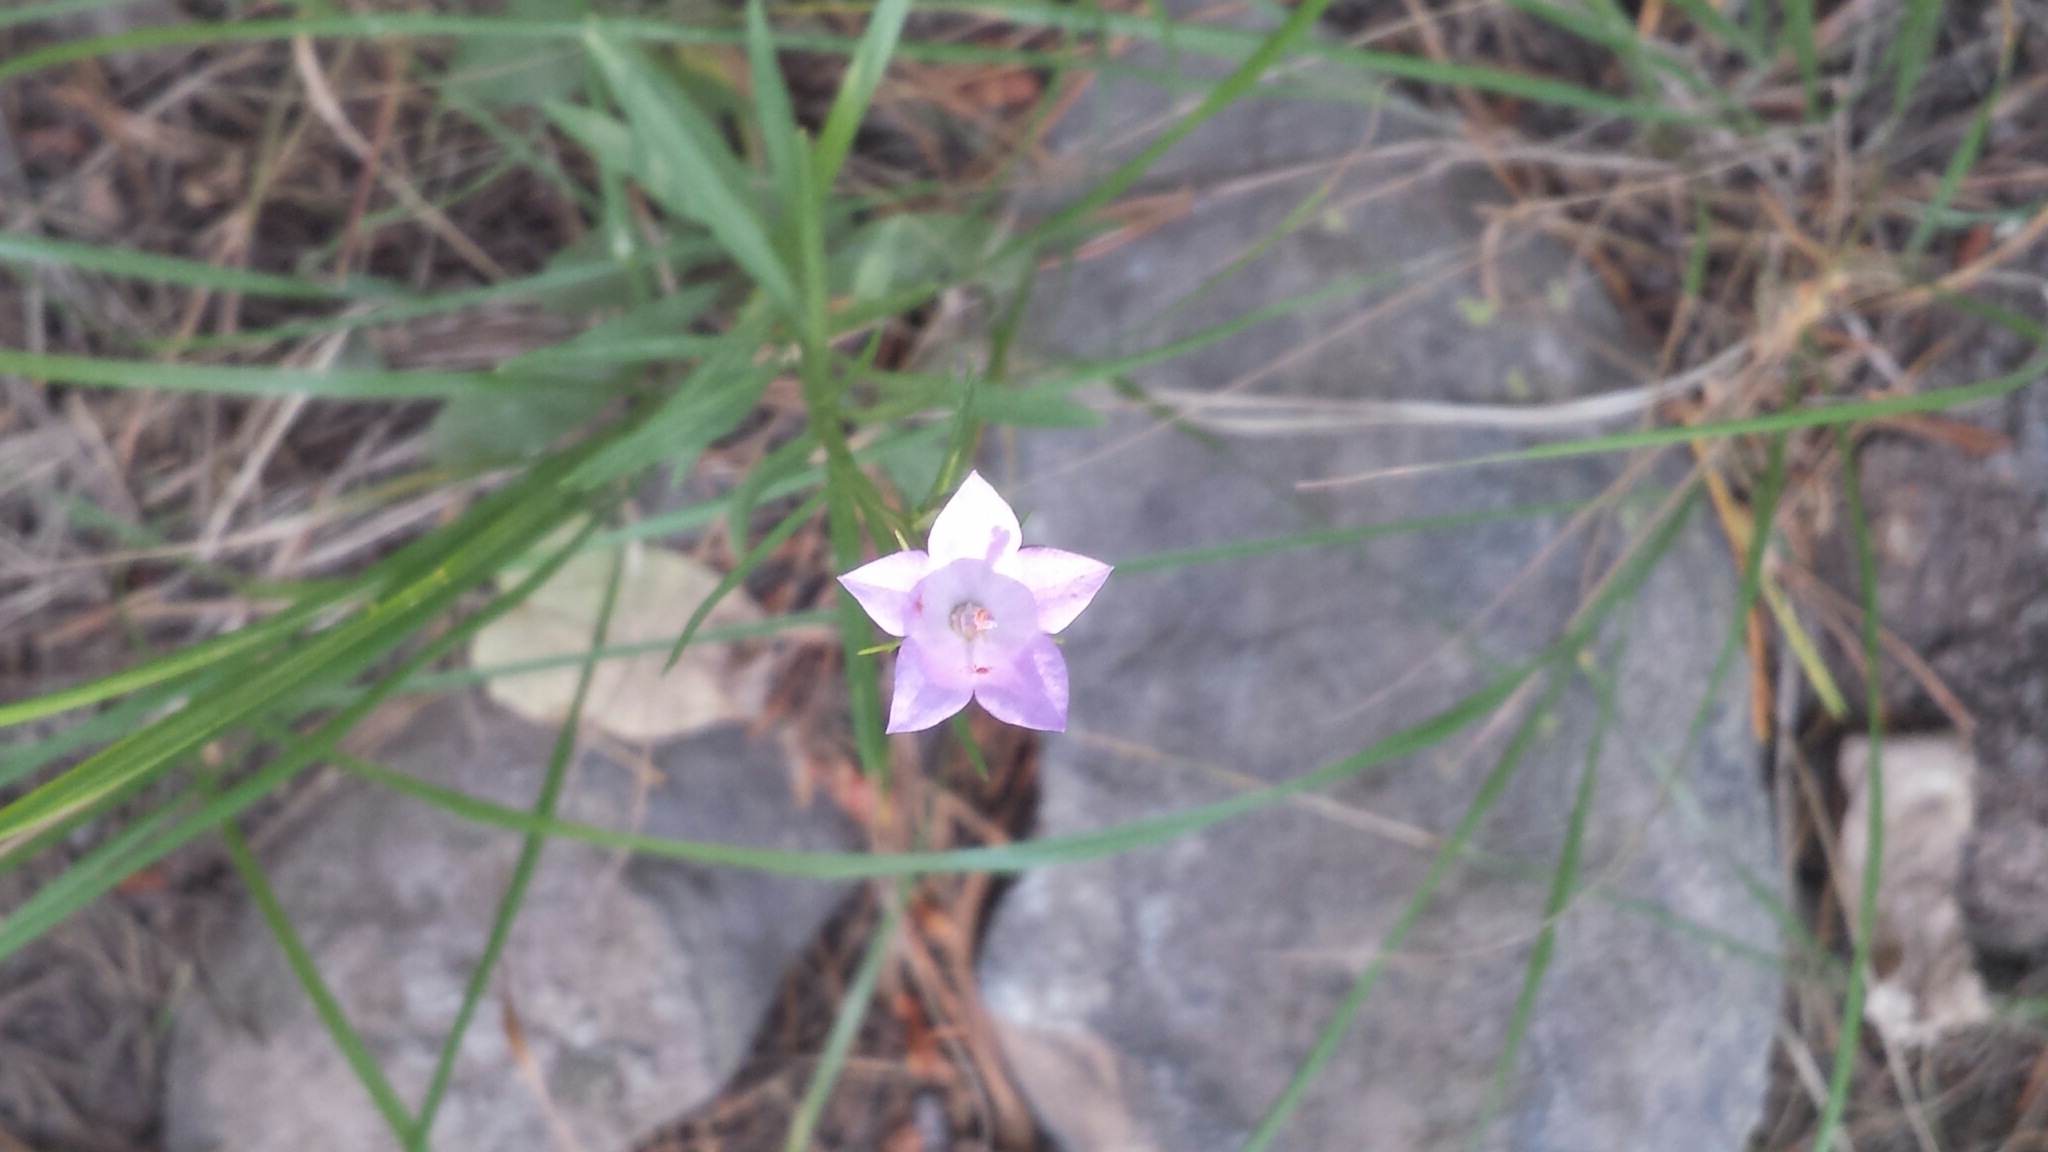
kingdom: Plantae
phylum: Tracheophyta
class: Magnoliopsida
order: Asterales
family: Campanulaceae
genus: Campanula
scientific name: Campanula petiolata
